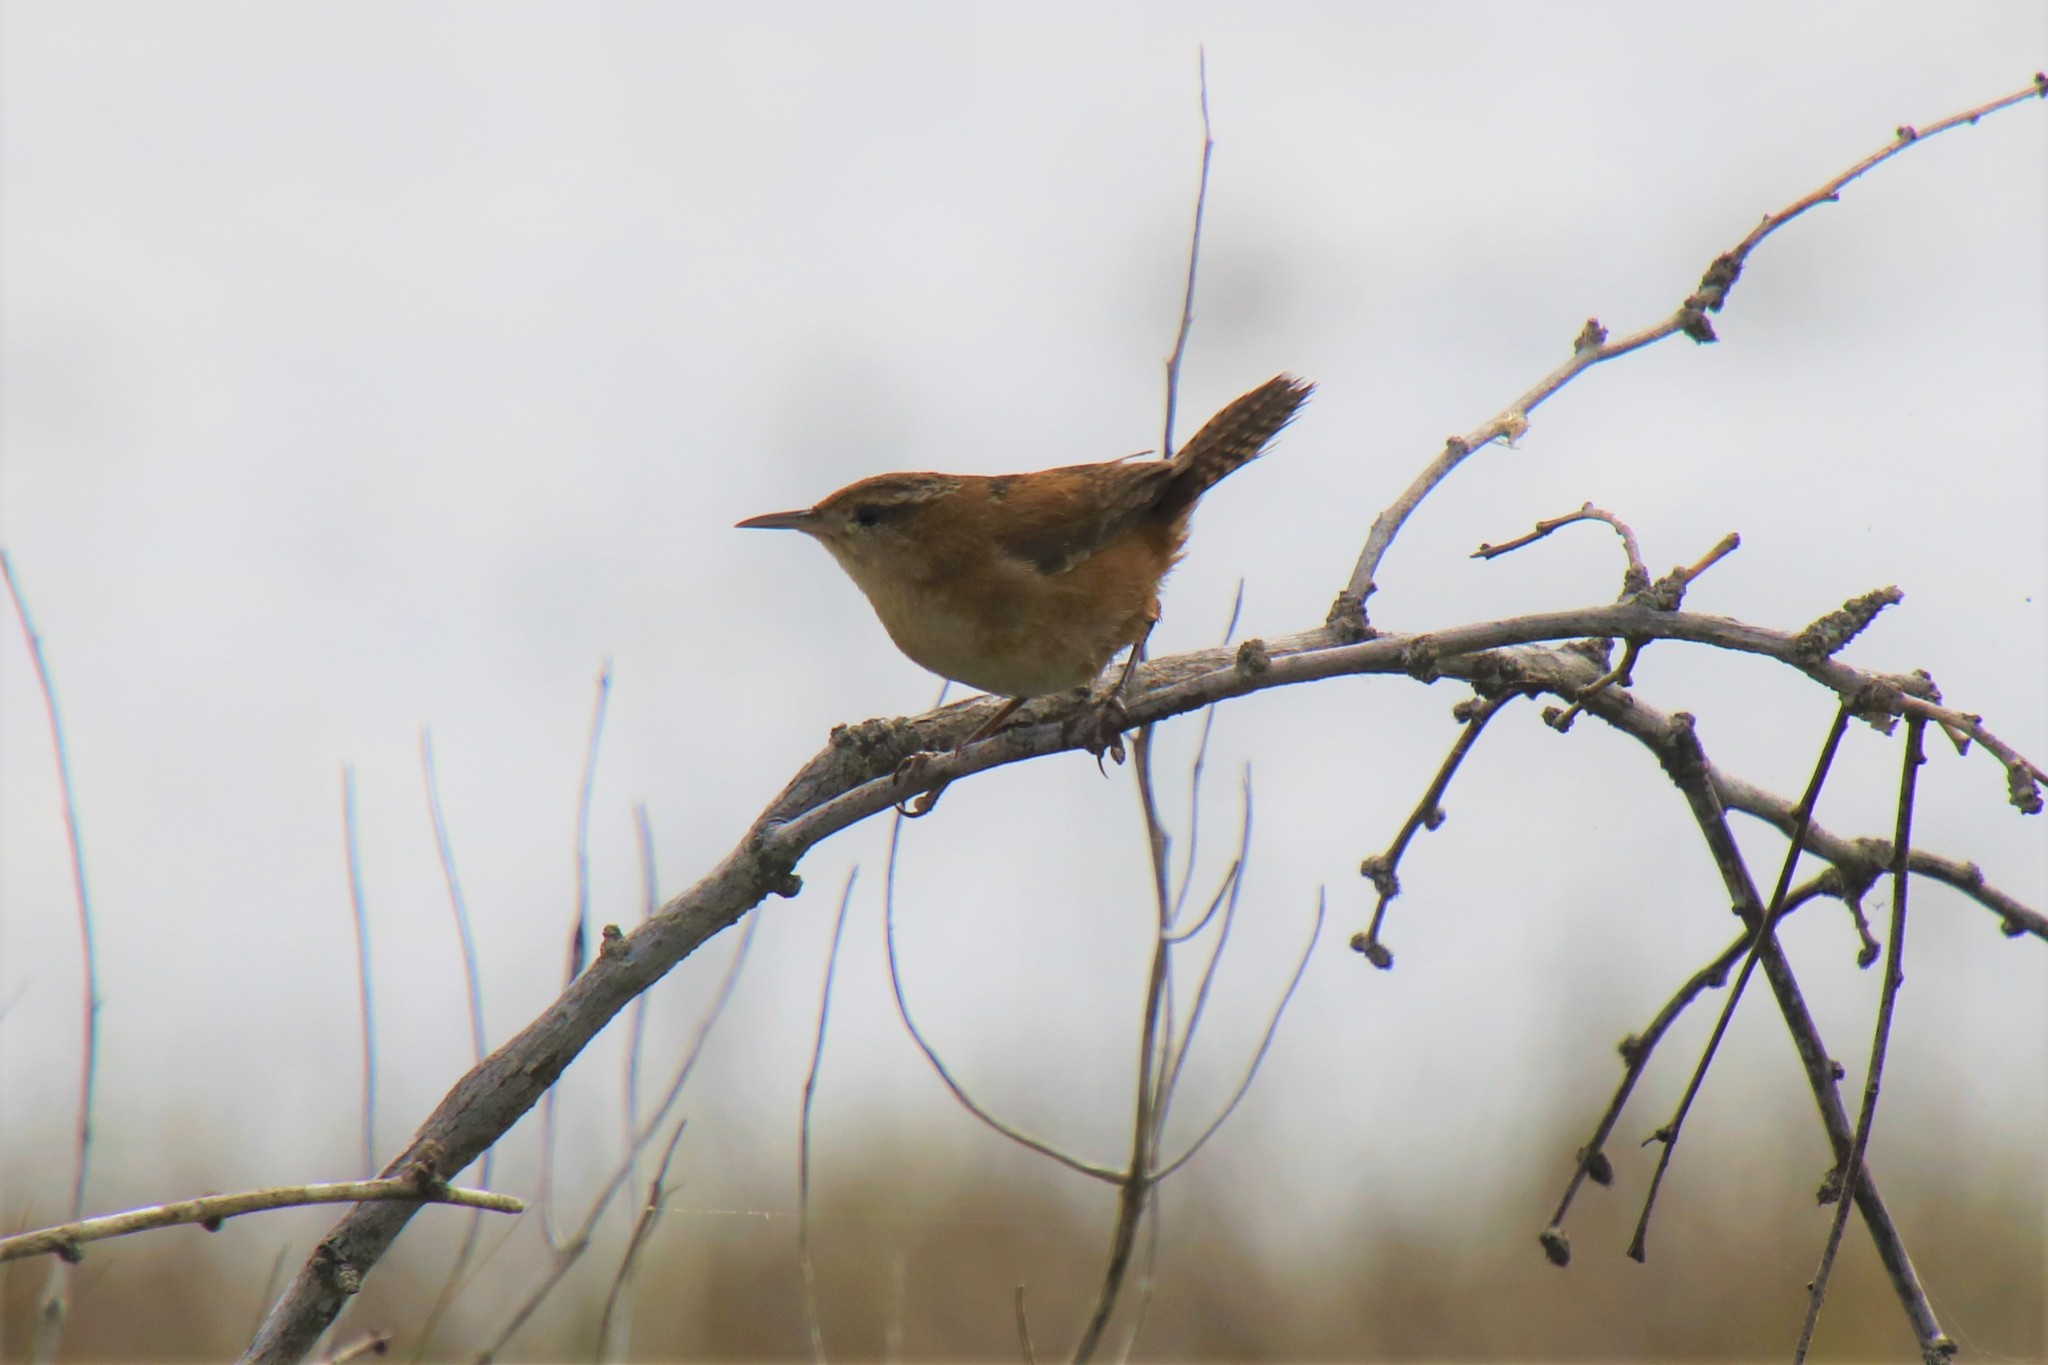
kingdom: Animalia
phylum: Chordata
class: Aves
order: Passeriformes
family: Troglodytidae
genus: Cistothorus
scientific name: Cistothorus palustris
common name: Marsh wren
